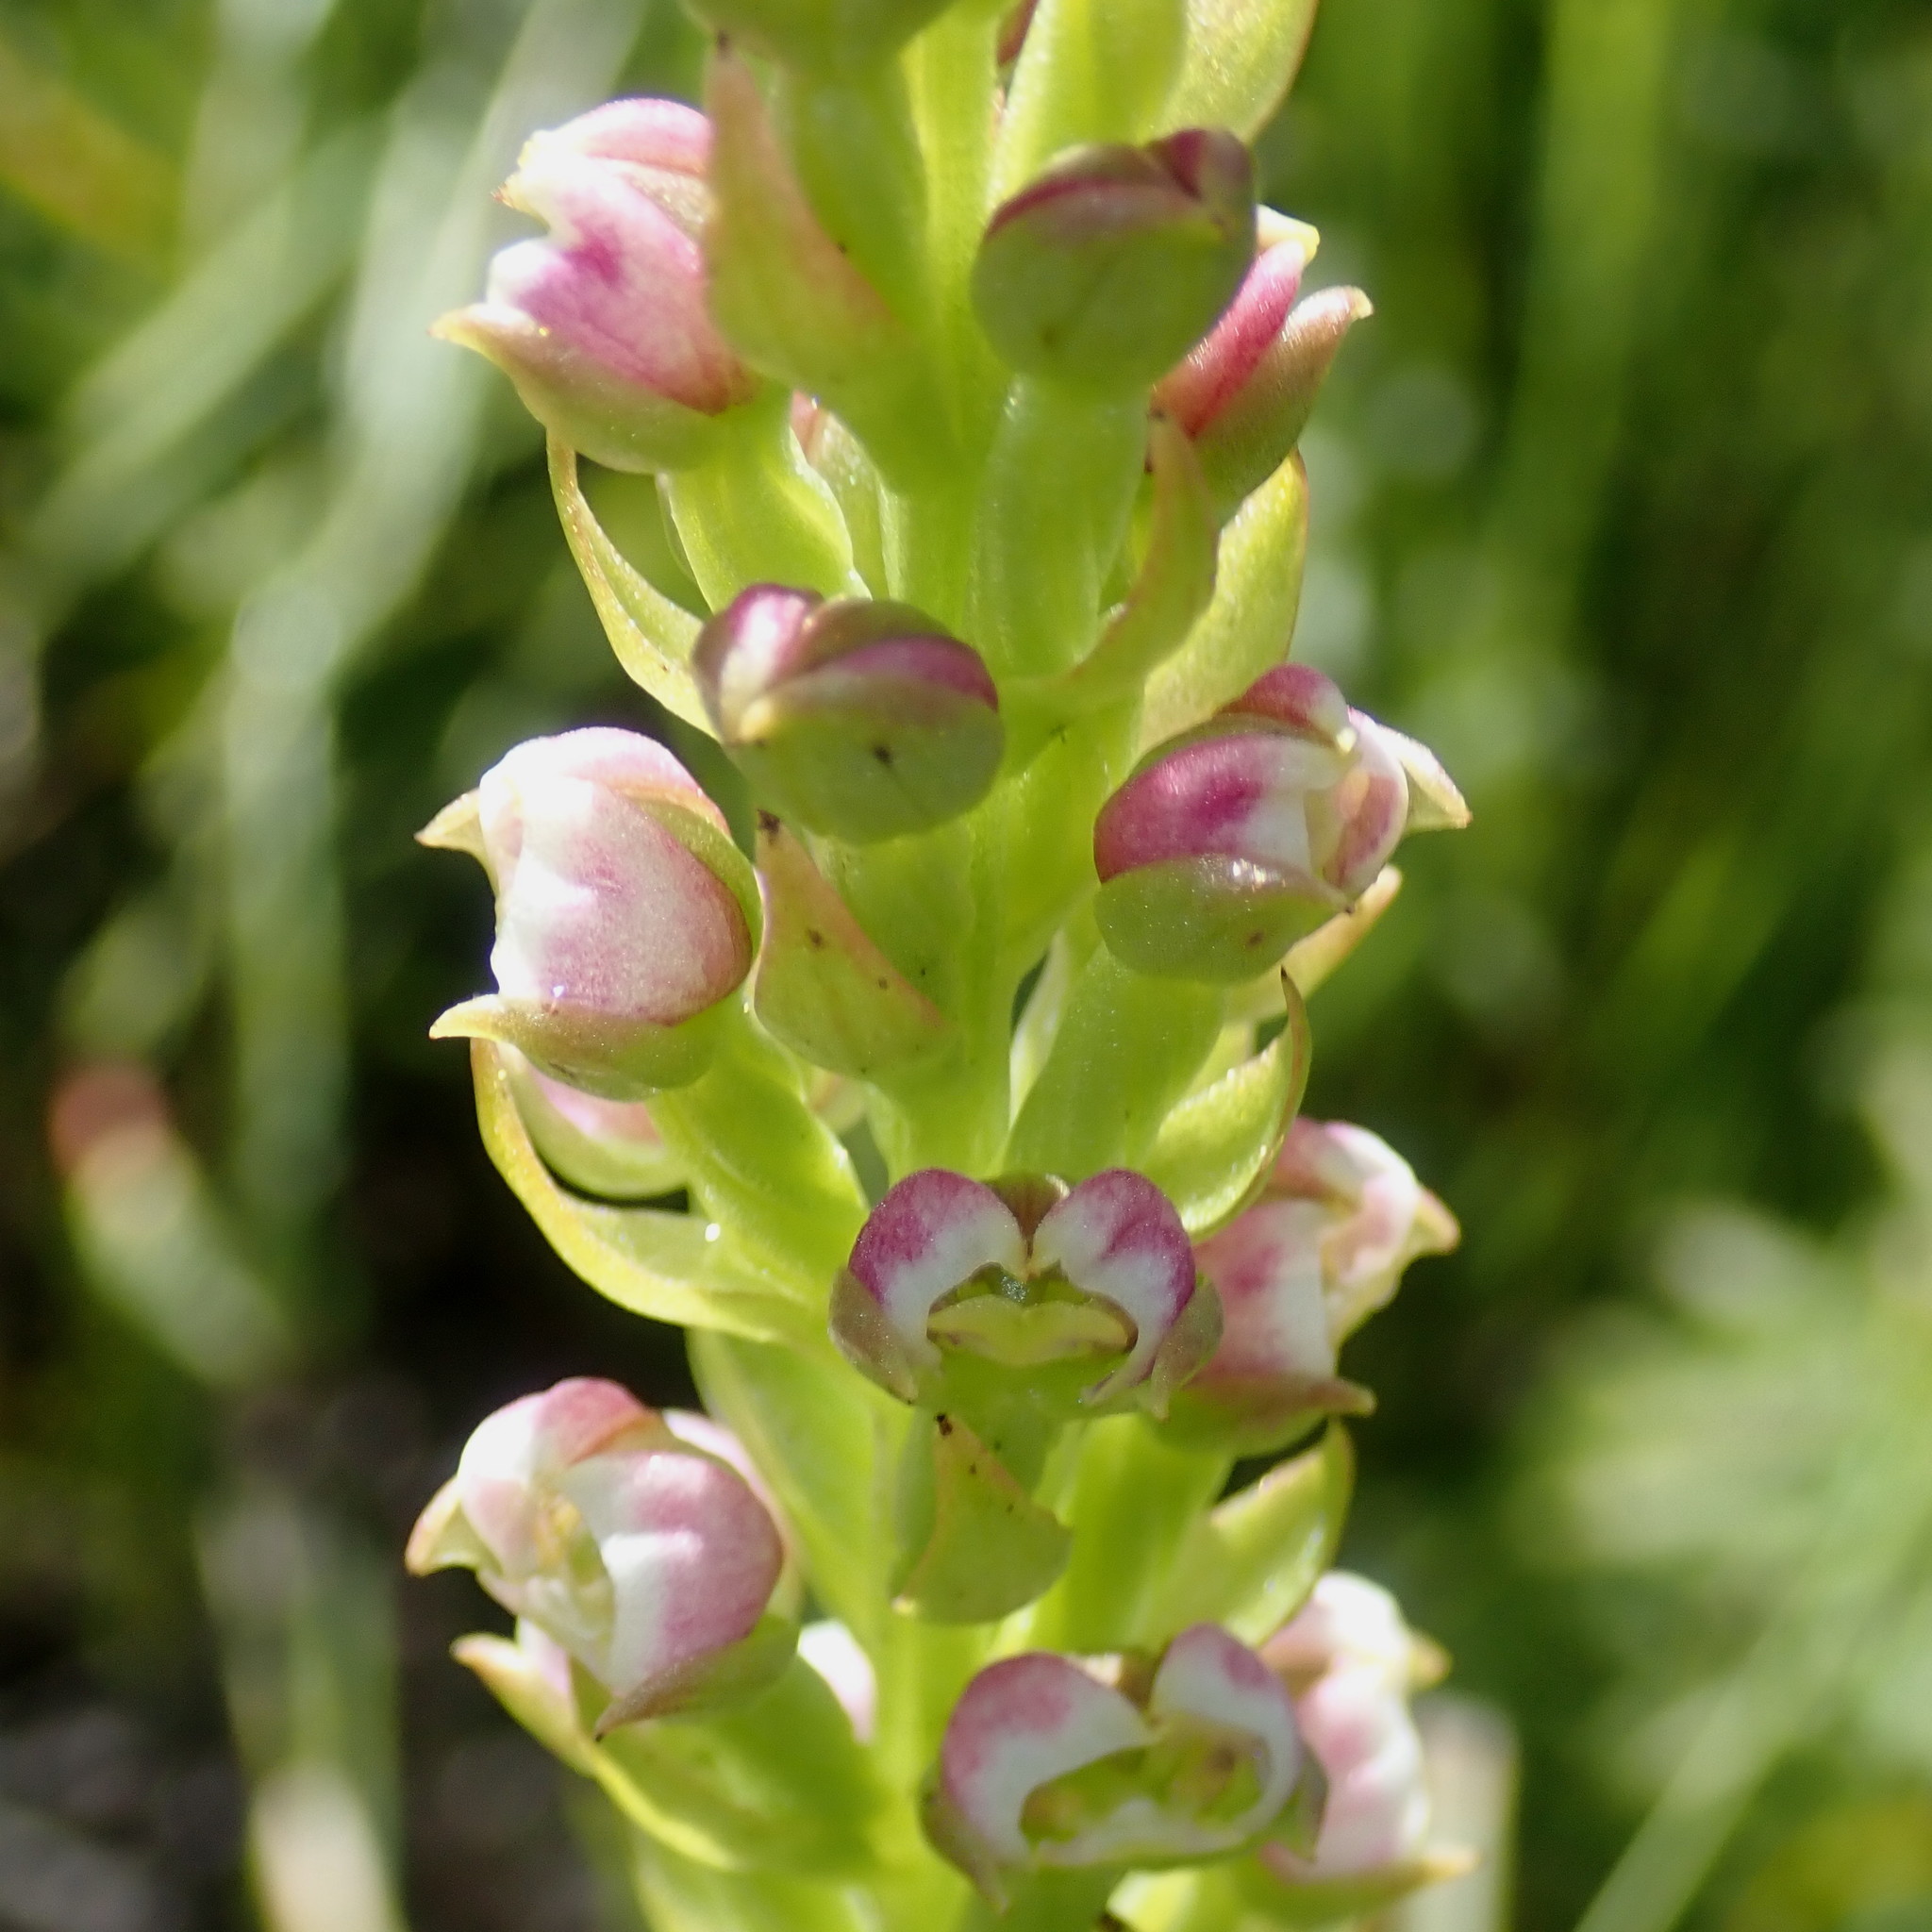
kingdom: Plantae
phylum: Tracheophyta
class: Liliopsida
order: Asparagales
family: Orchidaceae
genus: Evotella
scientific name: Evotella carnosa
